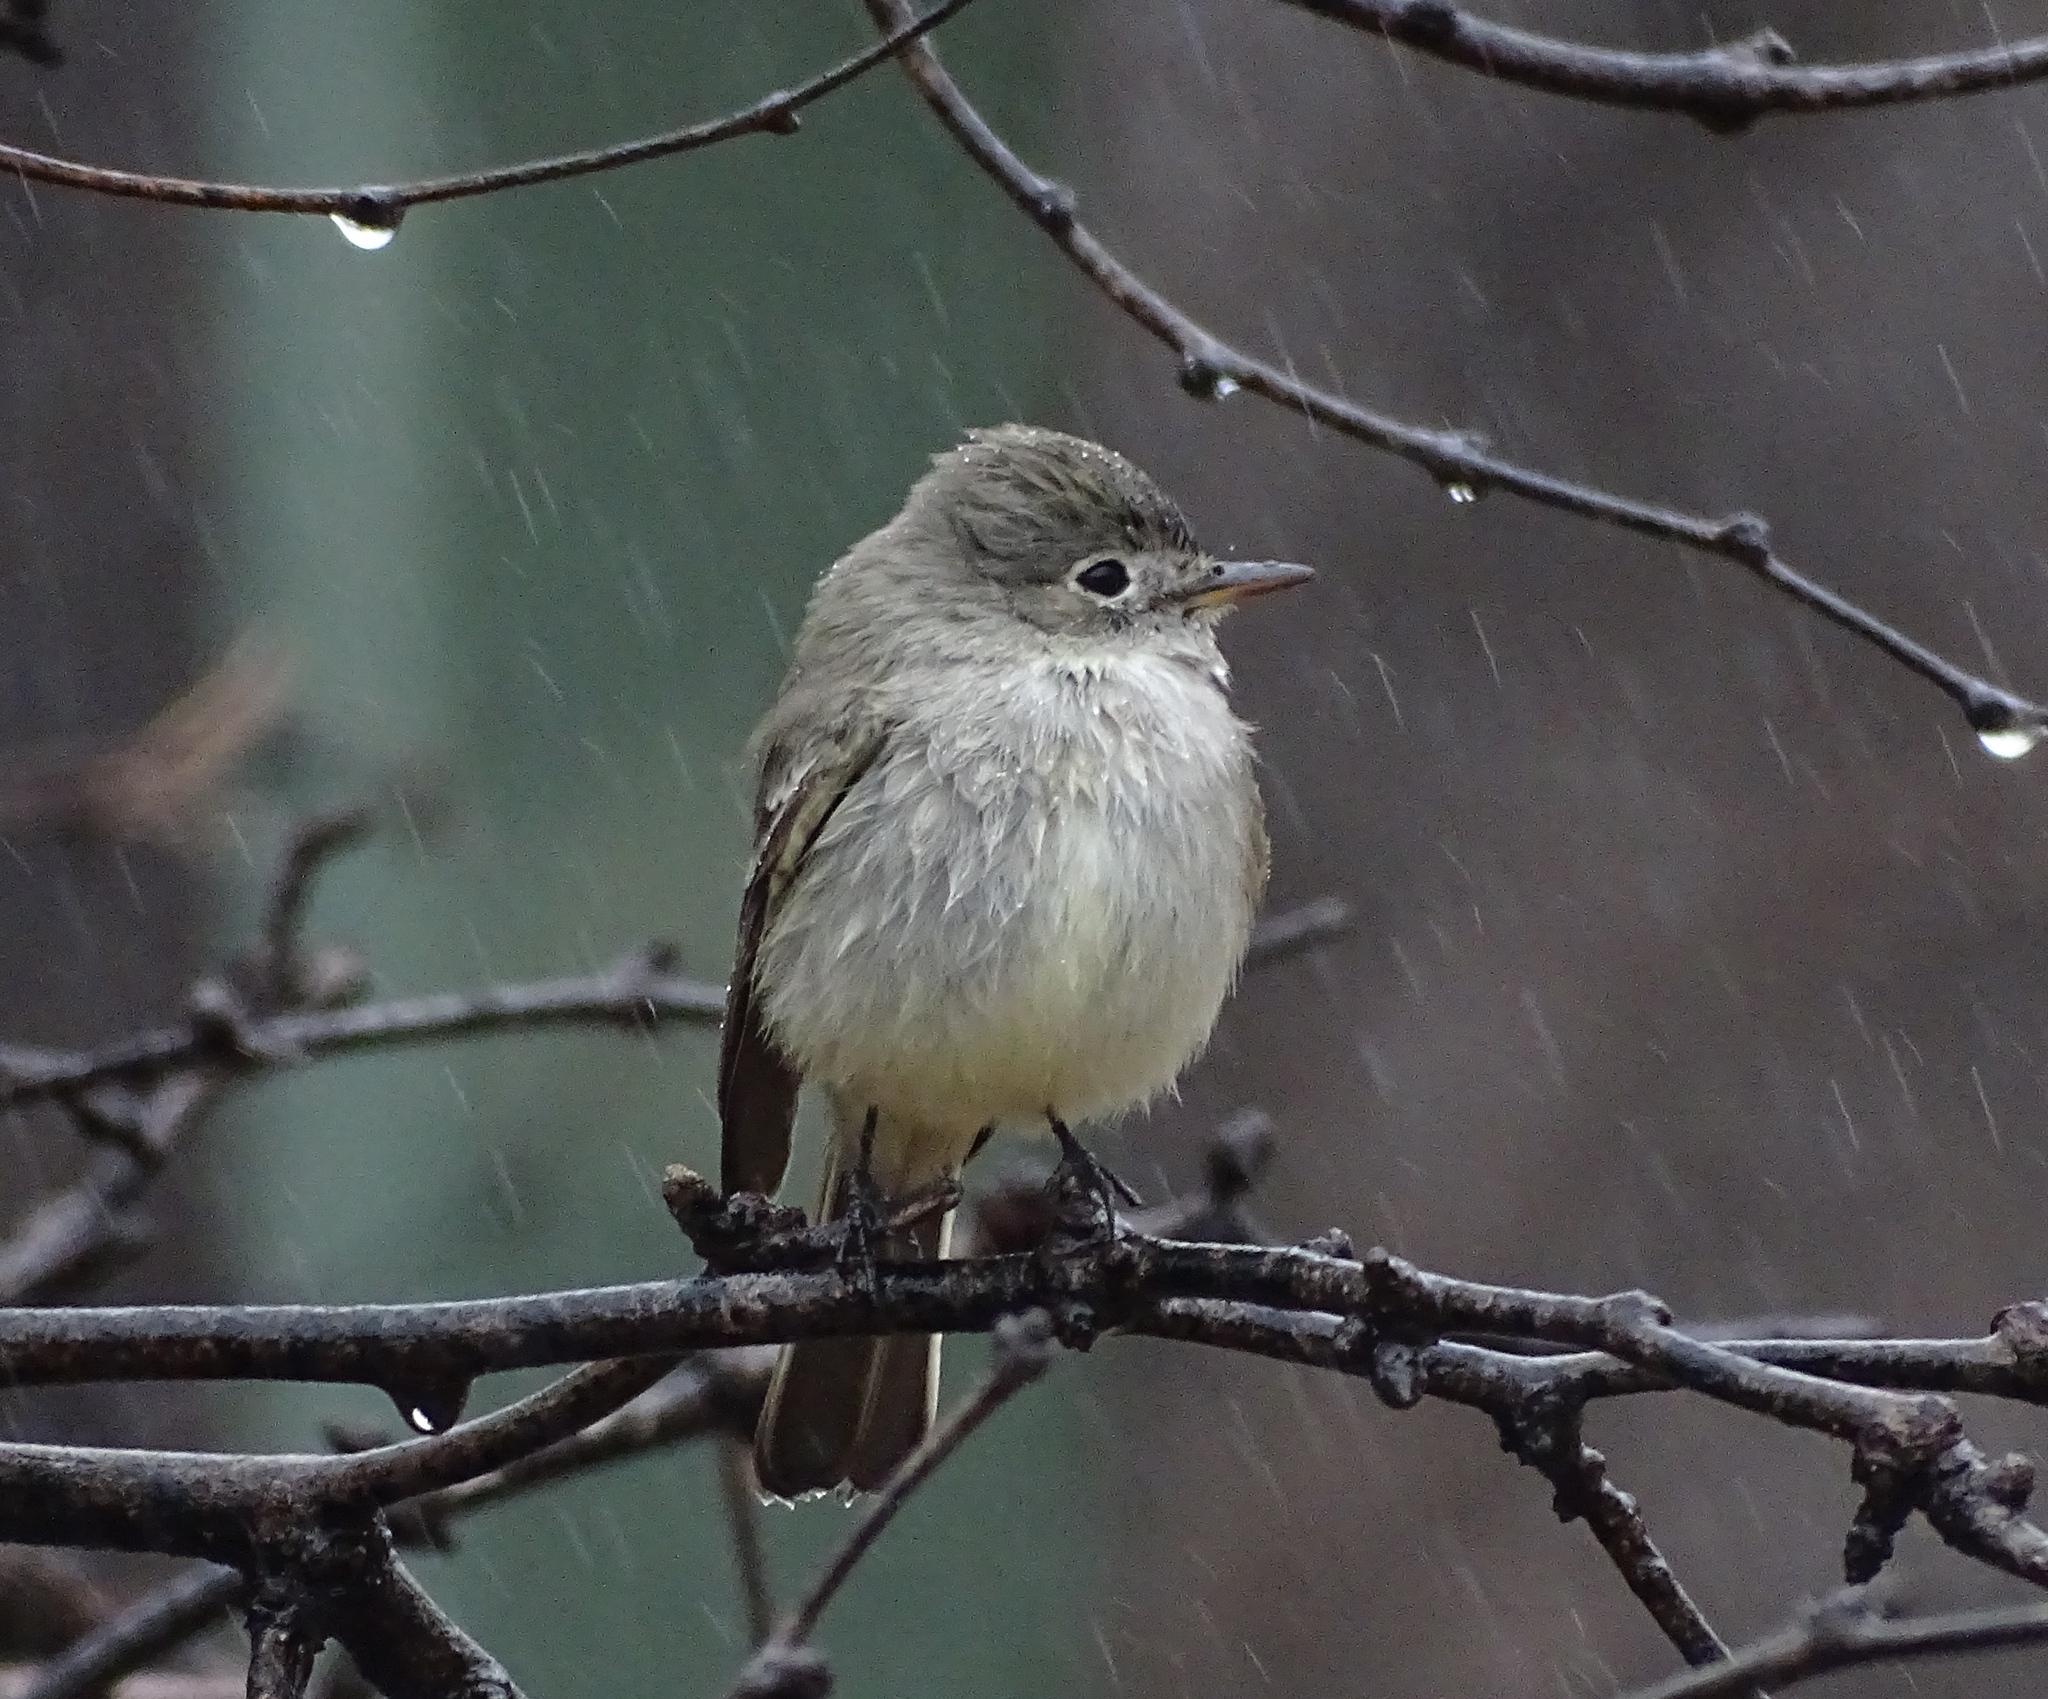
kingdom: Animalia
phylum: Chordata
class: Aves
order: Passeriformes
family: Tyrannidae
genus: Empidonax
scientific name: Empidonax wrightii
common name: Gray flycatcher
